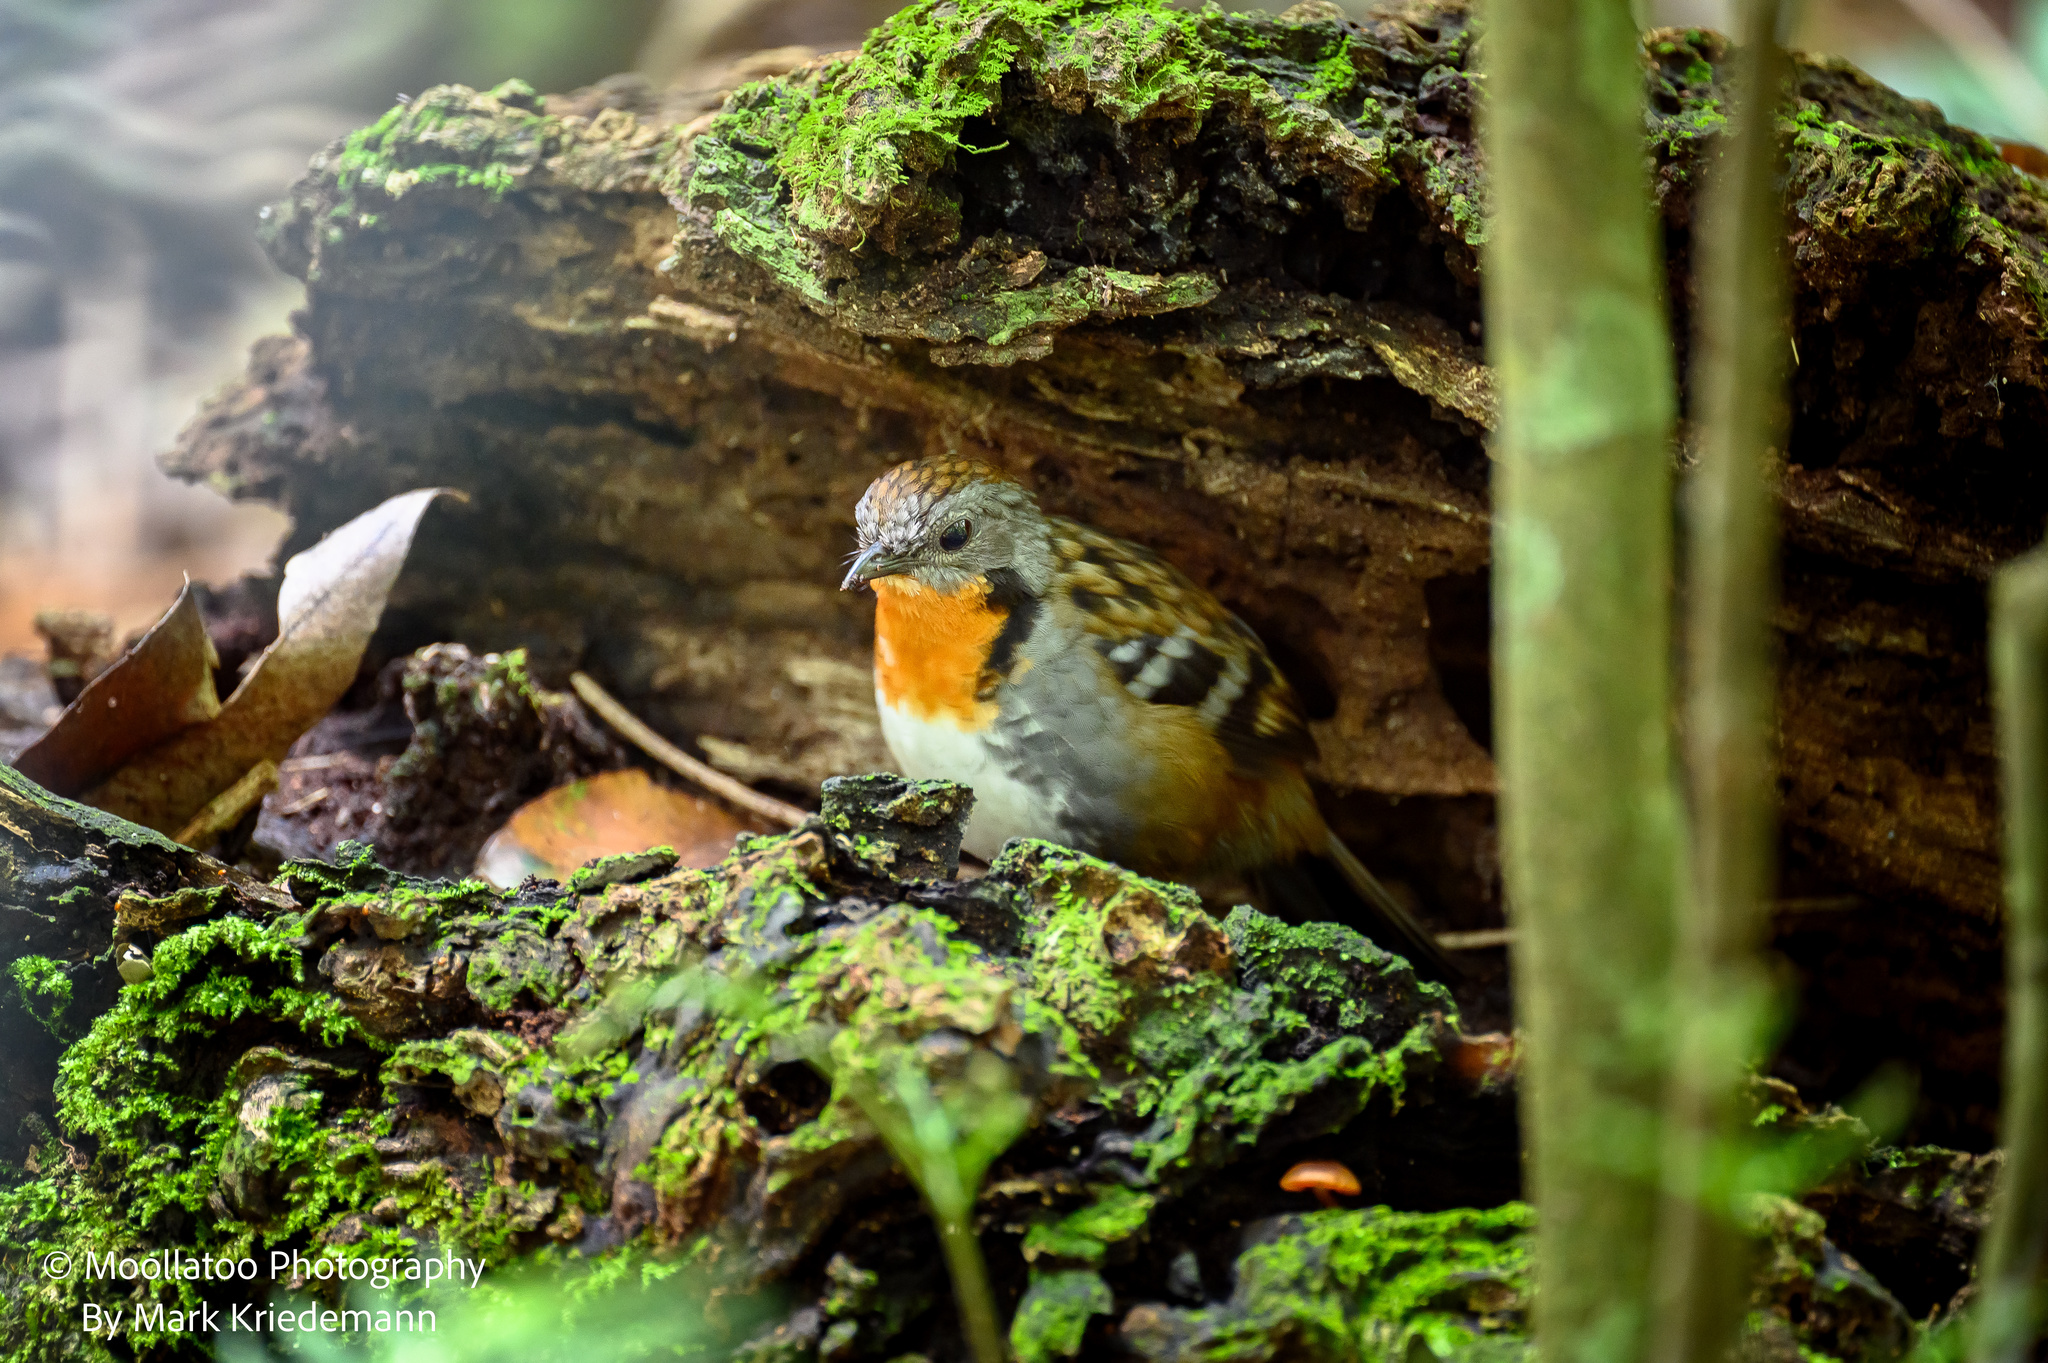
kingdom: Animalia
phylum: Chordata
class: Aves
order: Passeriformes
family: Orthonychidae
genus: Orthonyx
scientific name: Orthonyx temminckii
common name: Australian logrunner
